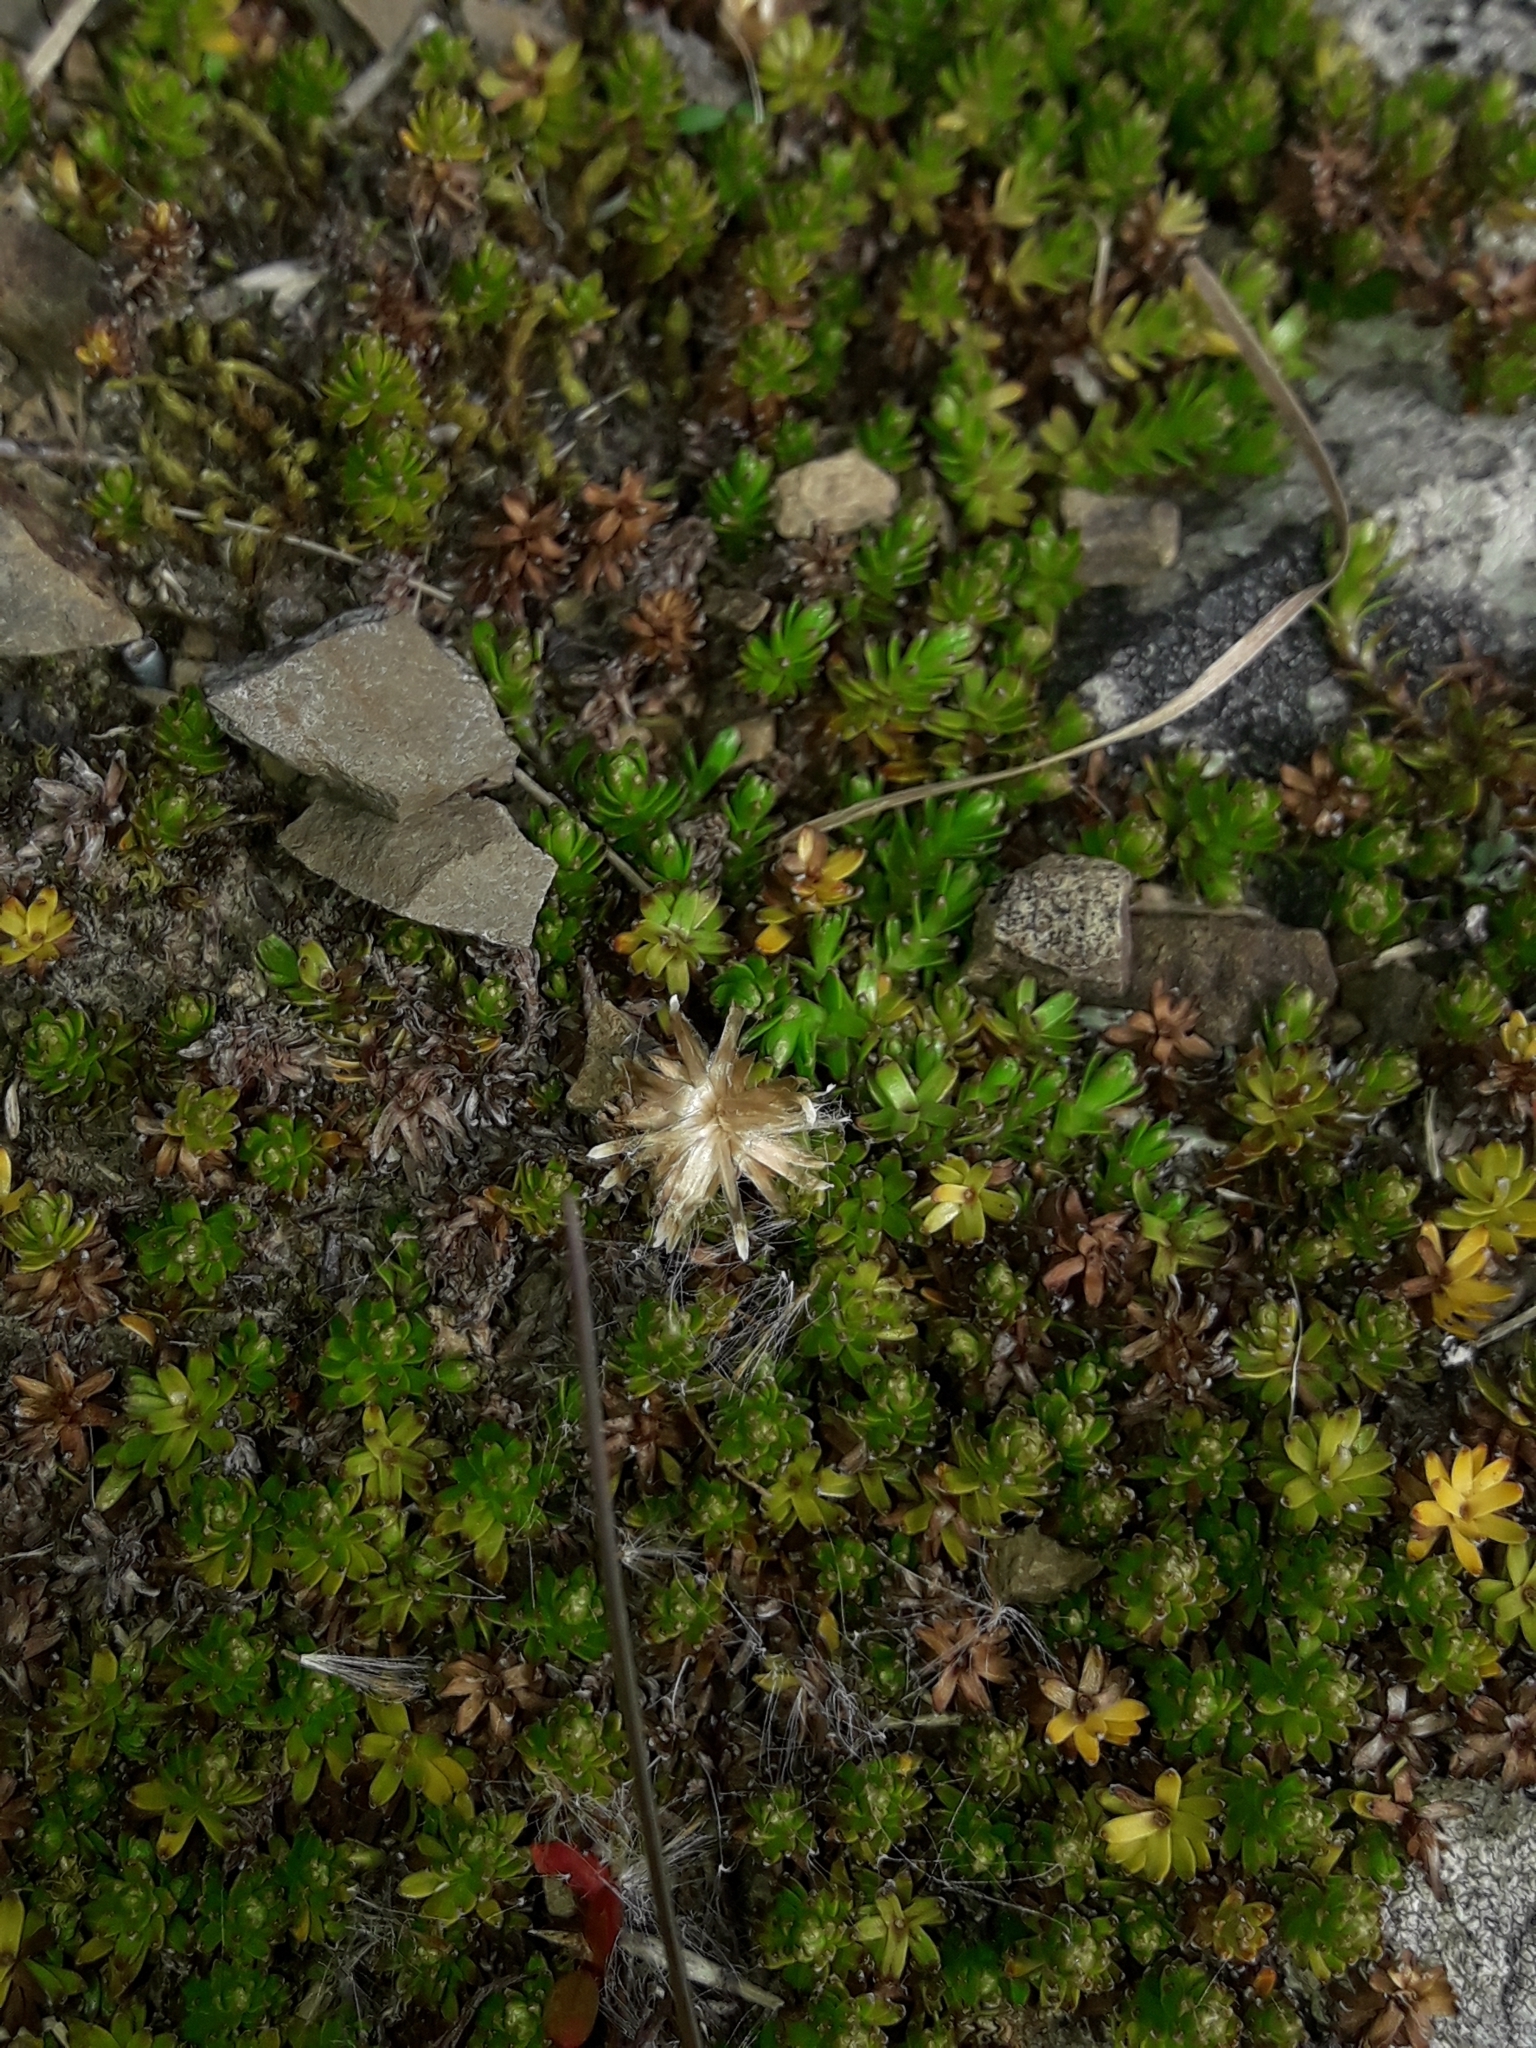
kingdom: Plantae
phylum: Tracheophyta
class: Magnoliopsida
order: Asterales
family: Asteraceae
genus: Raoulia
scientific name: Raoulia glabra
